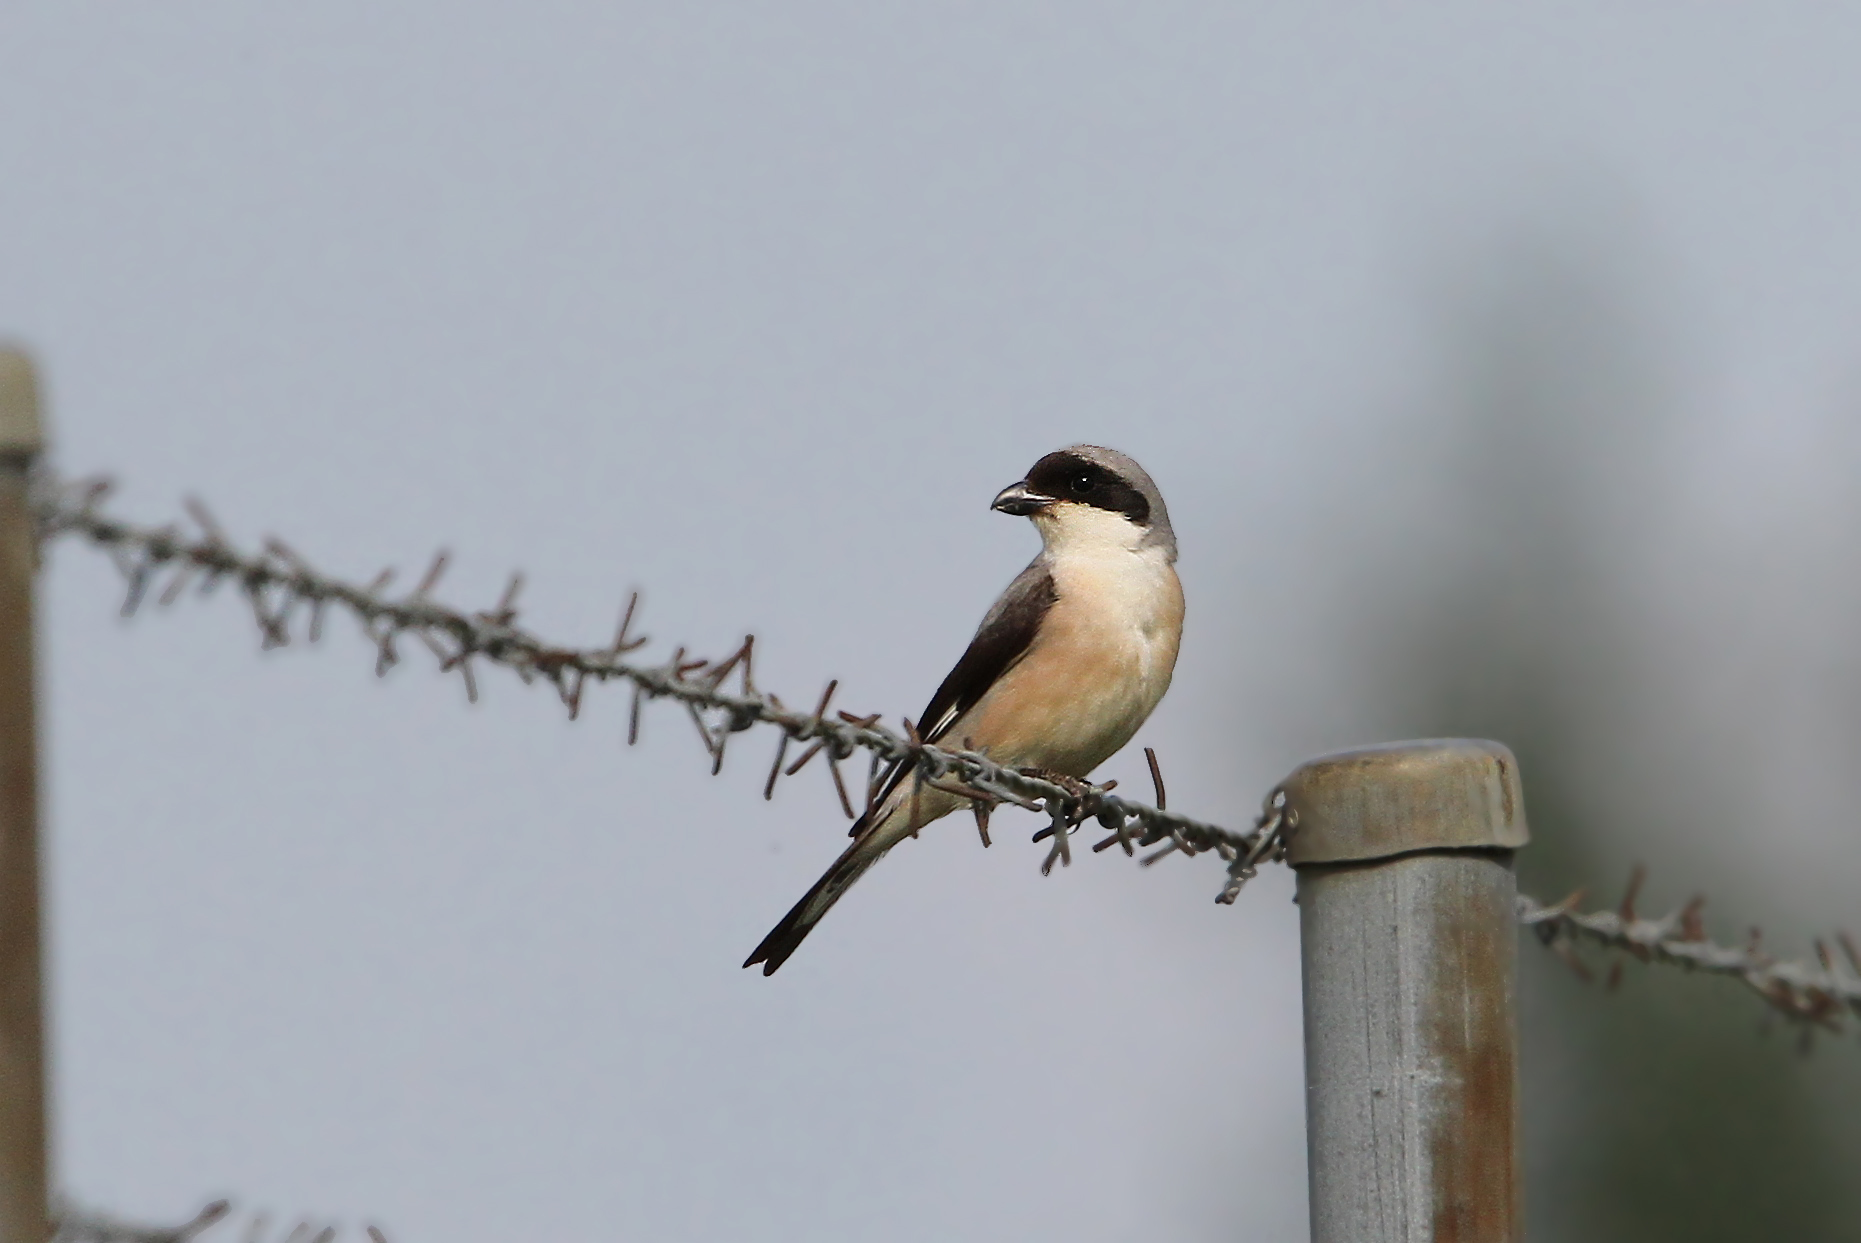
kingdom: Animalia
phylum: Chordata
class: Aves
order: Passeriformes
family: Laniidae
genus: Lanius
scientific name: Lanius minor
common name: Lesser grey shrike
